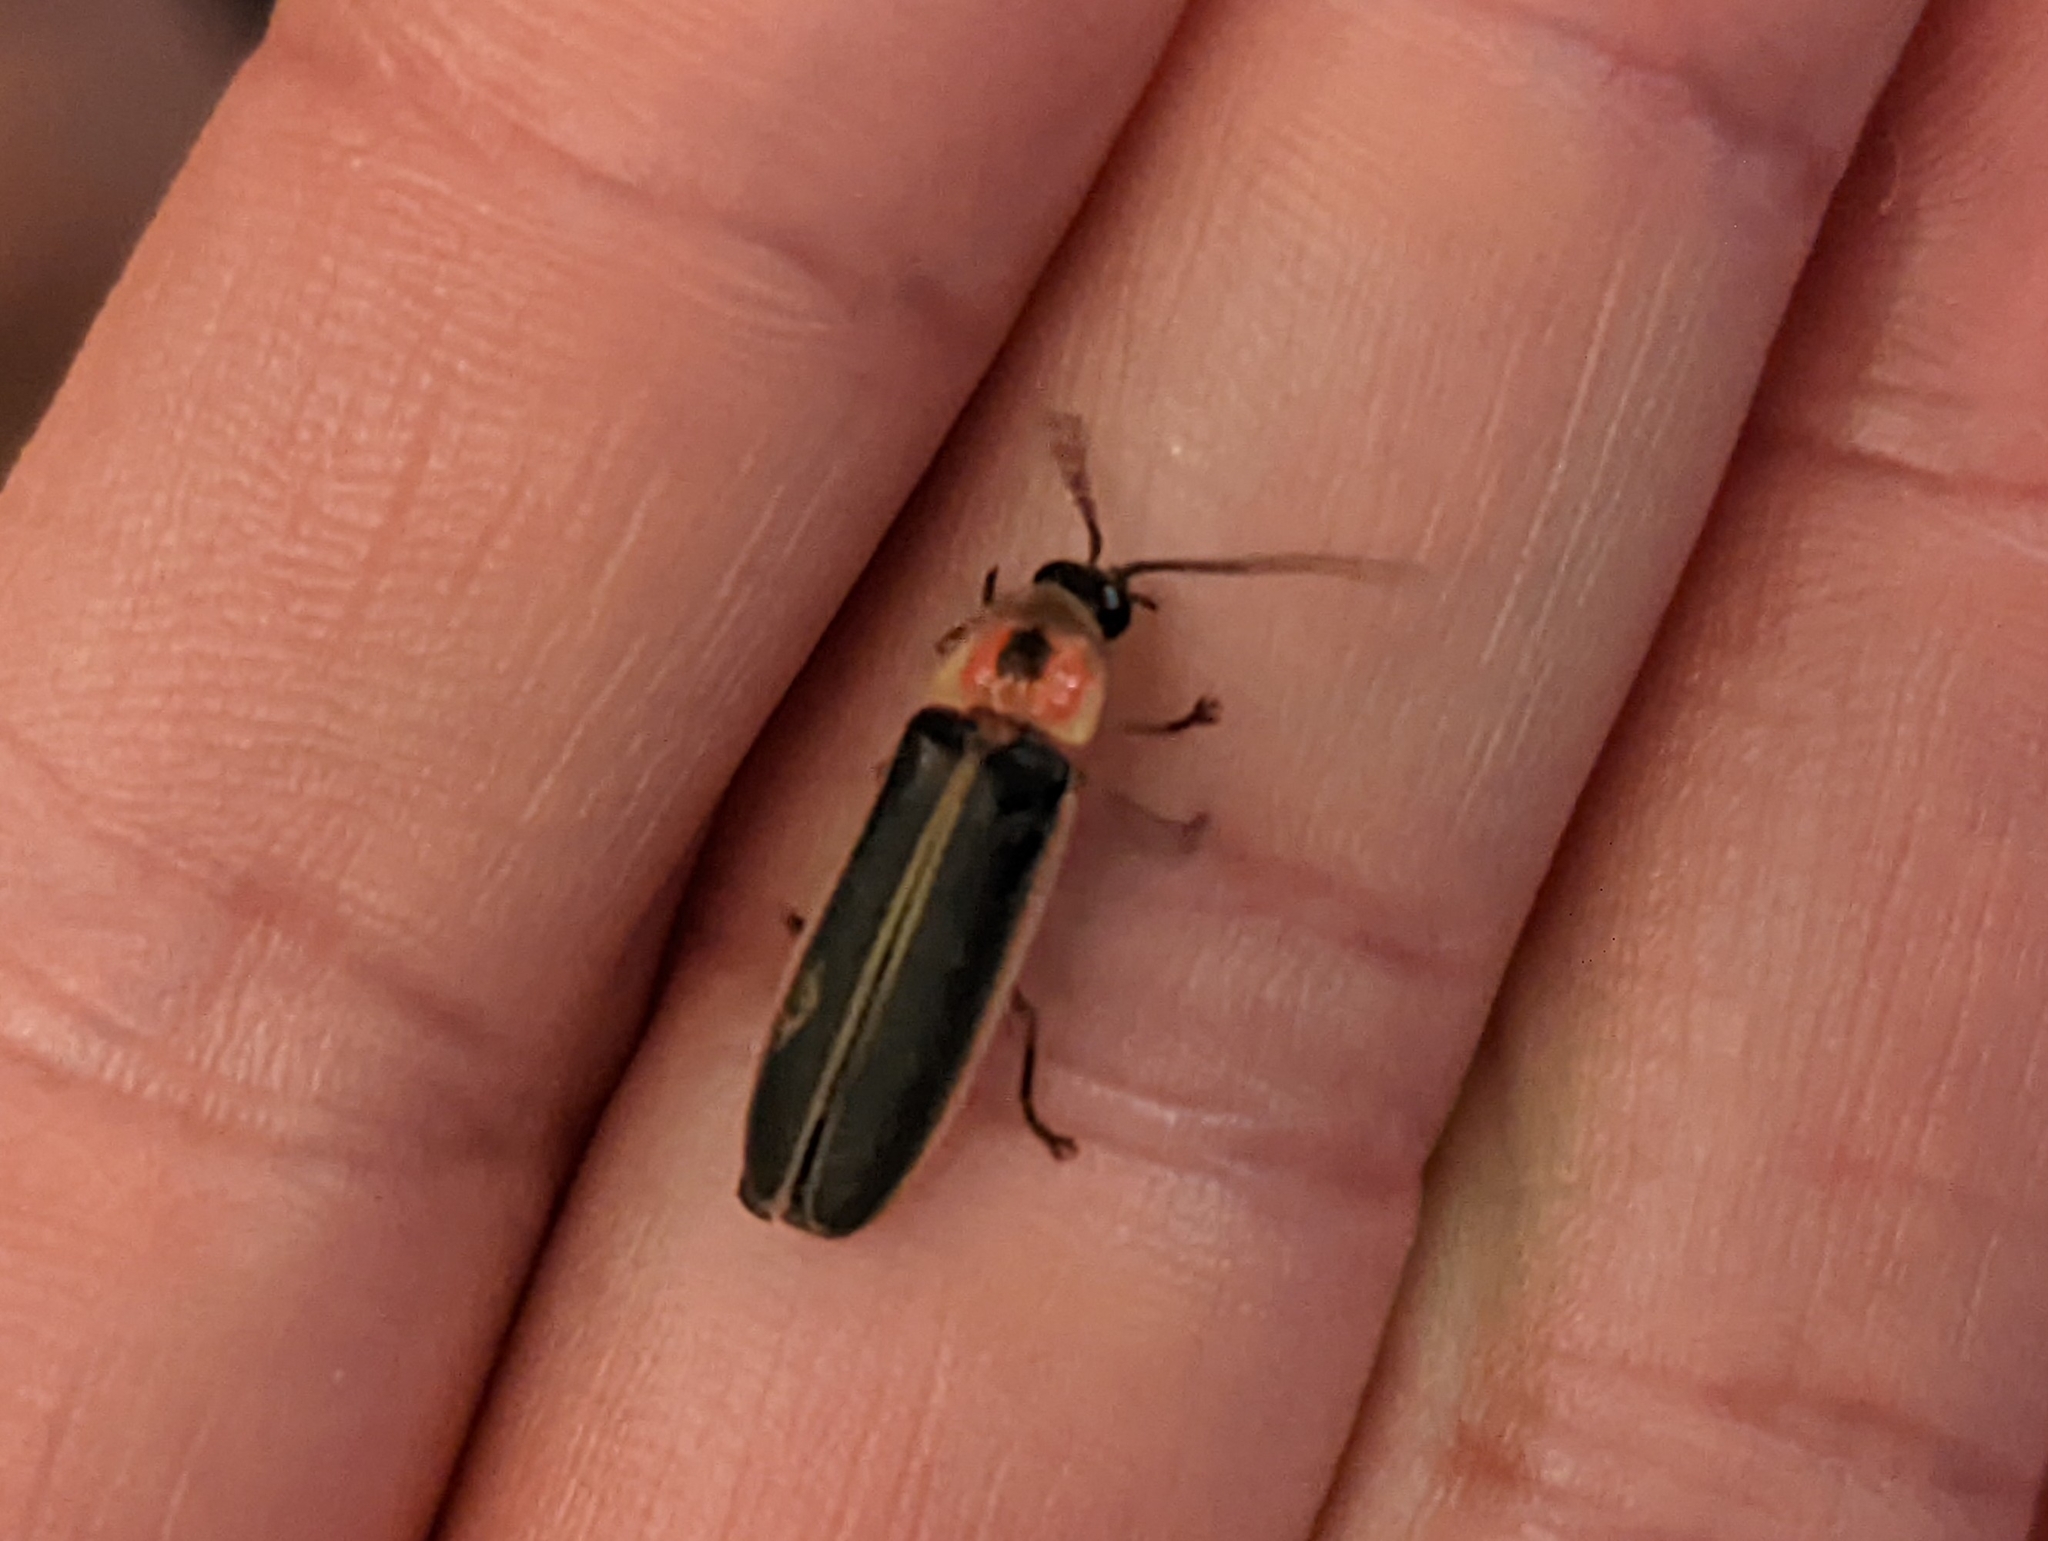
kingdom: Animalia
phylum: Arthropoda
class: Insecta
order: Coleoptera
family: Lampyridae
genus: Photinus
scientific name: Photinus pyralis
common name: Big dipper firefly
